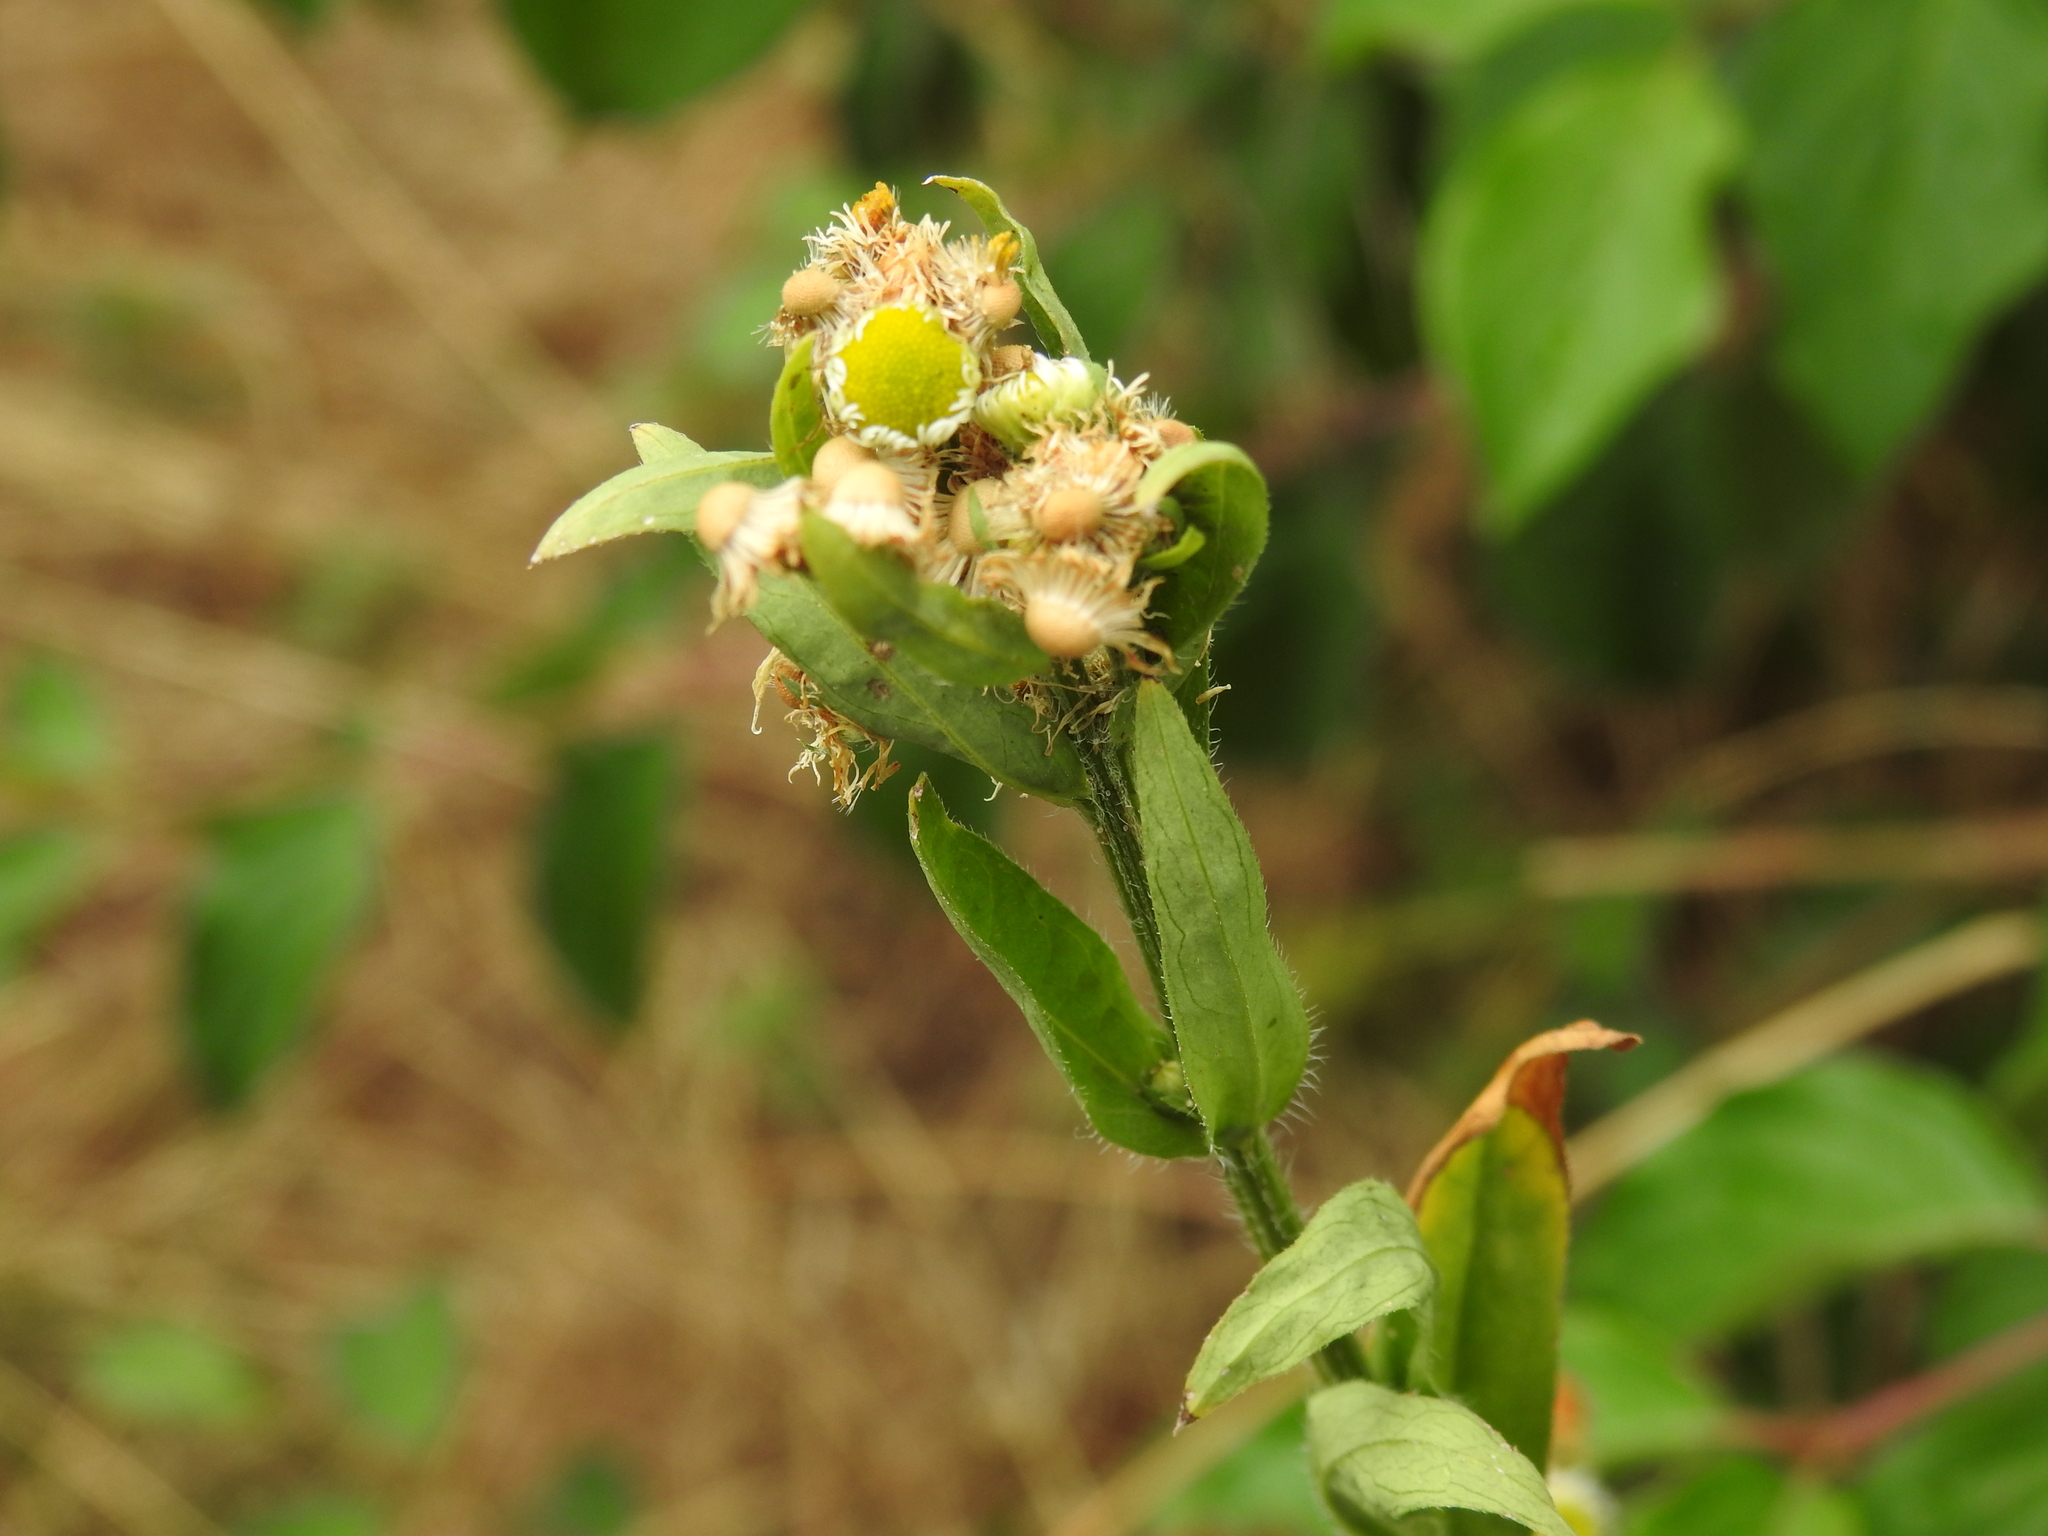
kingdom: Plantae
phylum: Tracheophyta
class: Magnoliopsida
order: Asterales
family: Asteraceae
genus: Erigeron
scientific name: Erigeron annuus
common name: Tall fleabane
